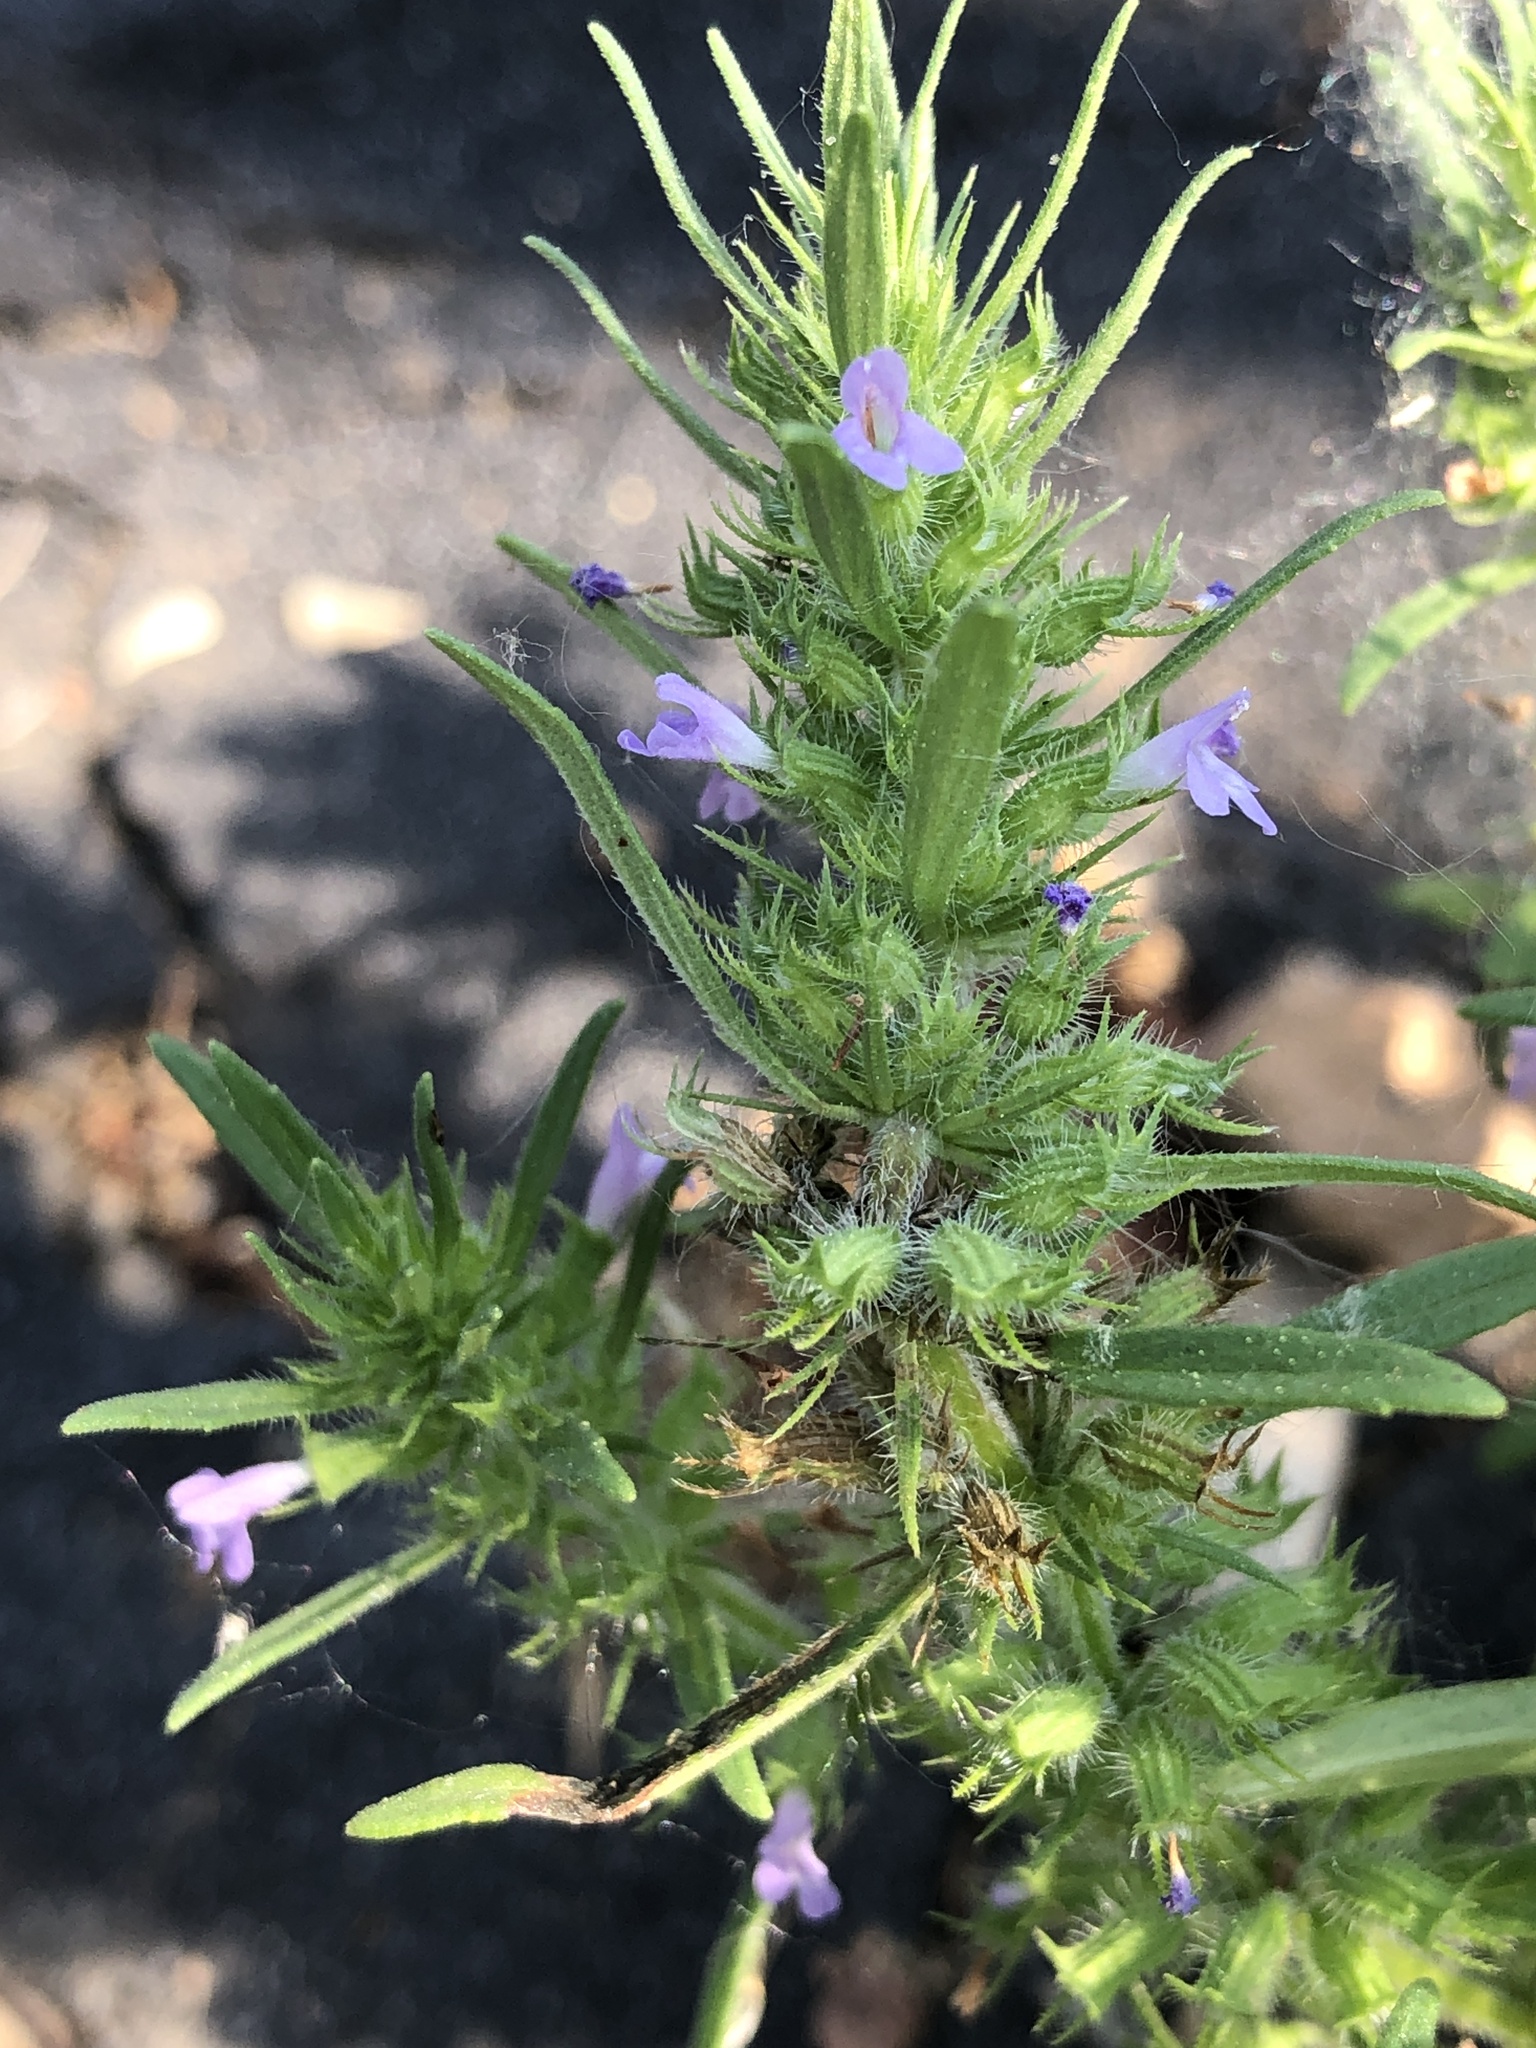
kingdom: Plantae
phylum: Tracheophyta
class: Magnoliopsida
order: Lamiales
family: Lamiaceae
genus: Hedeoma
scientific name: Hedeoma hispida
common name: Mock pennyroyal
